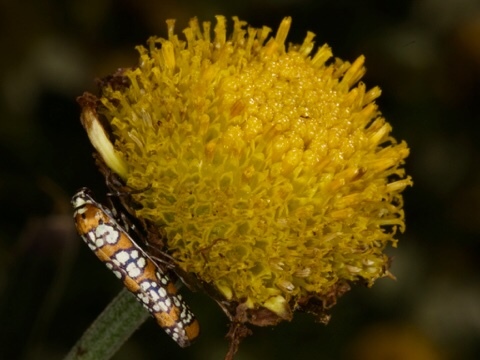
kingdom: Animalia
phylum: Arthropoda
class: Insecta
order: Lepidoptera
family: Attevidae
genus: Atteva
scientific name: Atteva punctella
